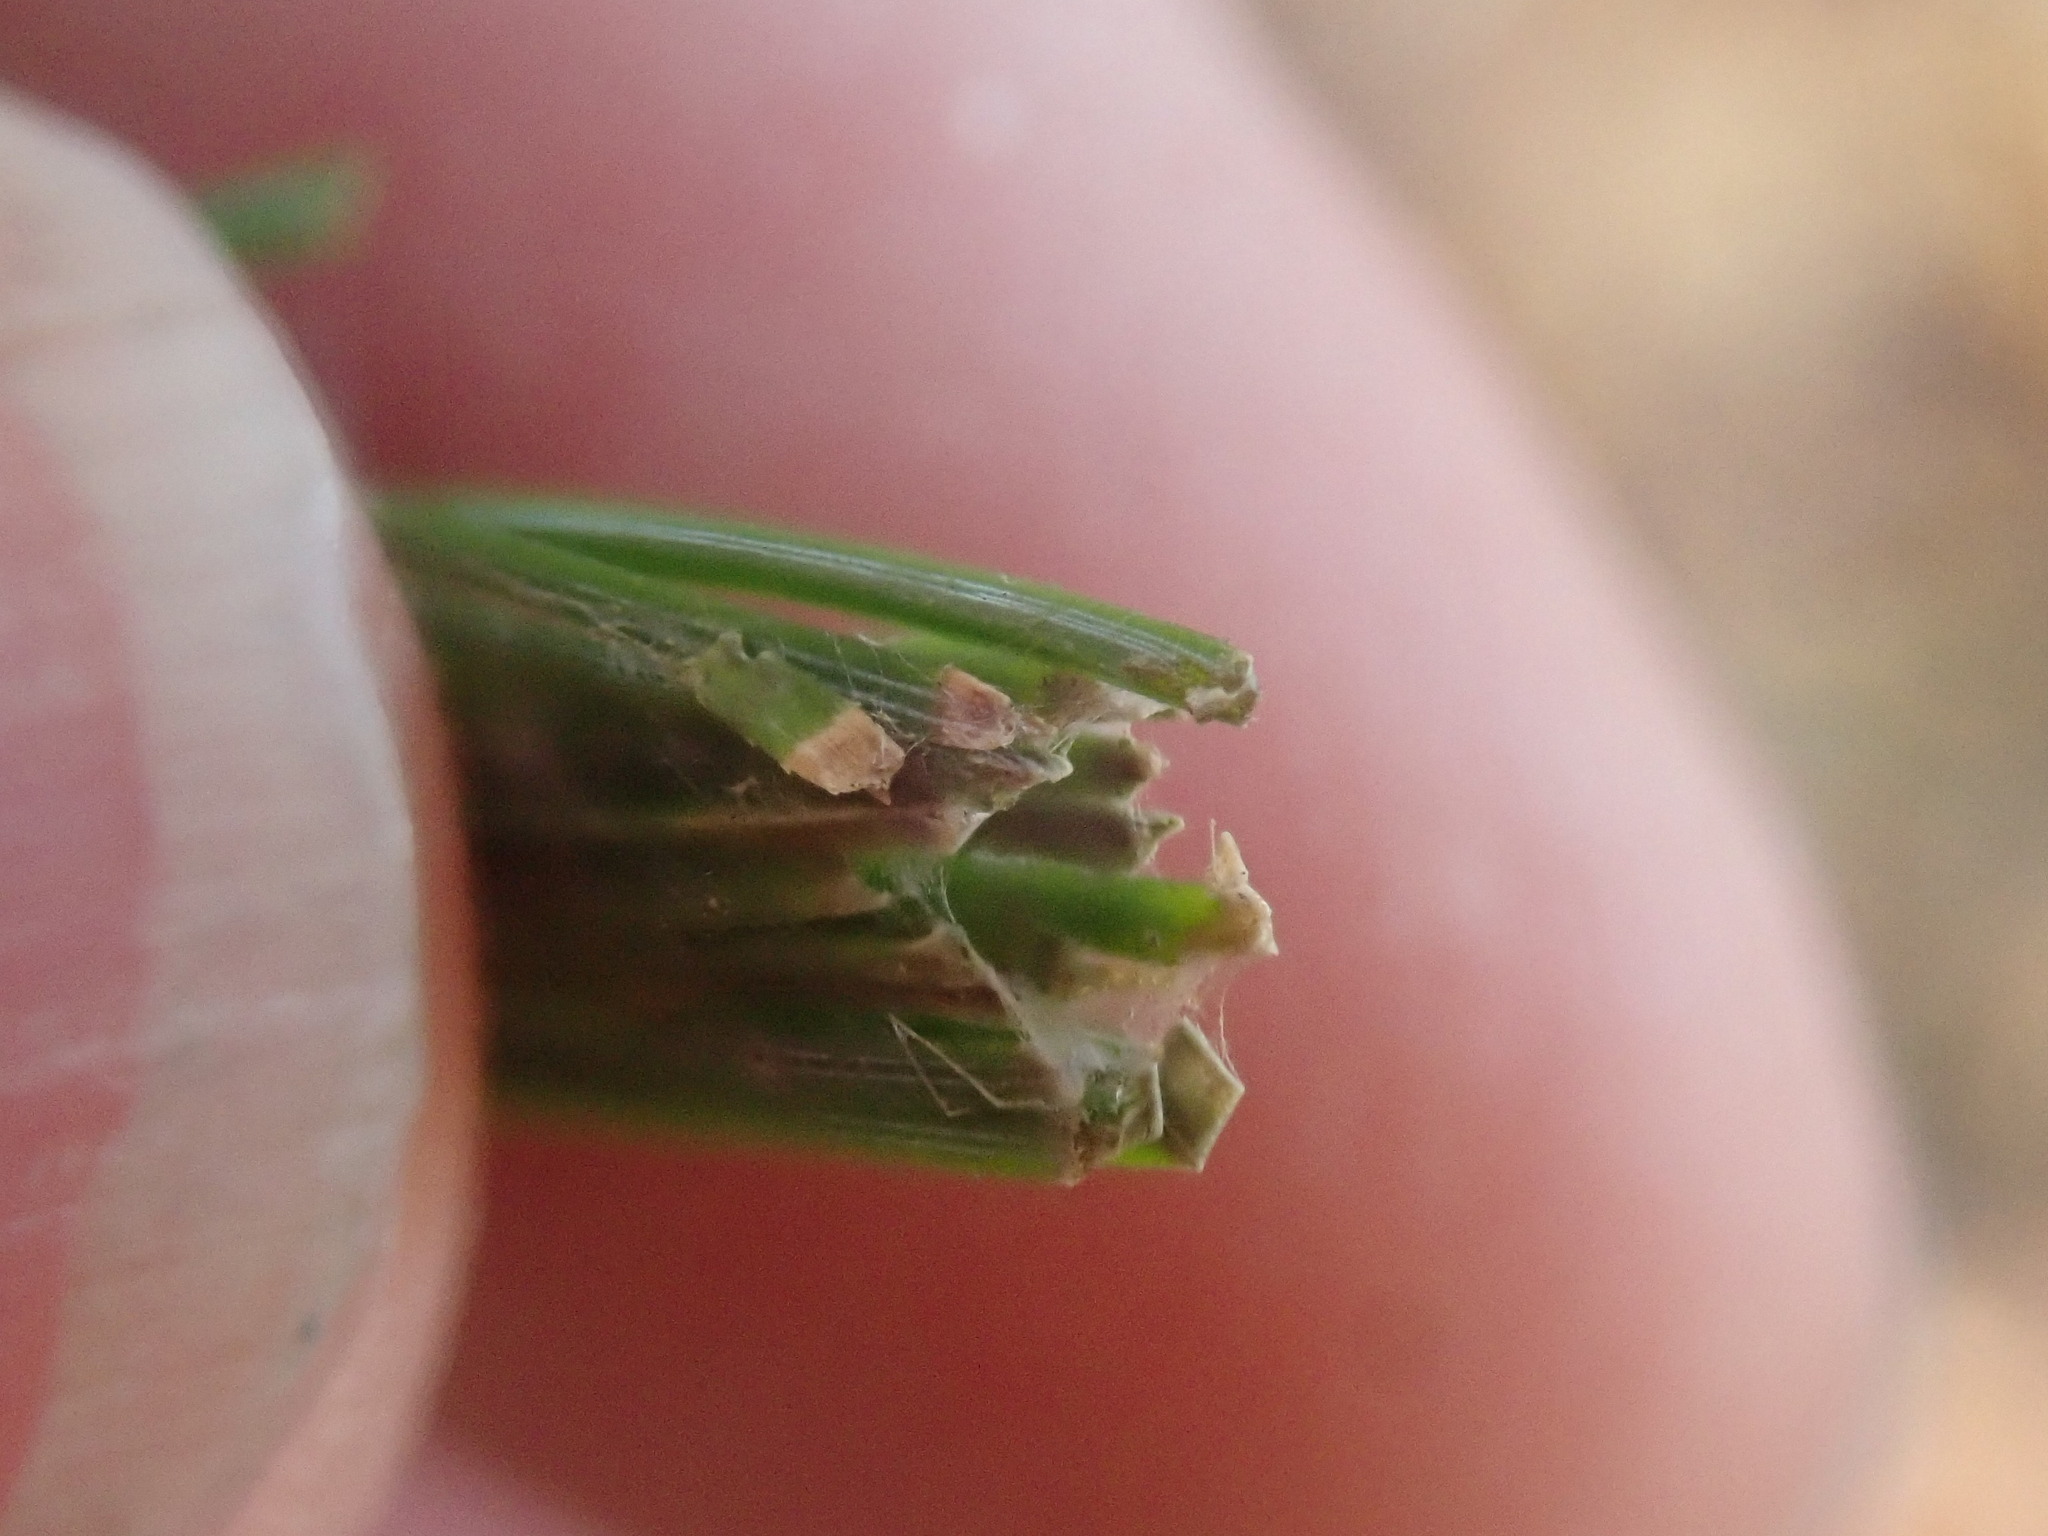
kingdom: Animalia
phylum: Arthropoda
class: Insecta
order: Lepidoptera
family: Tortricidae
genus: Argyrotaenia
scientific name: Argyrotaenia pinatubana
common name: Pine tube moth
